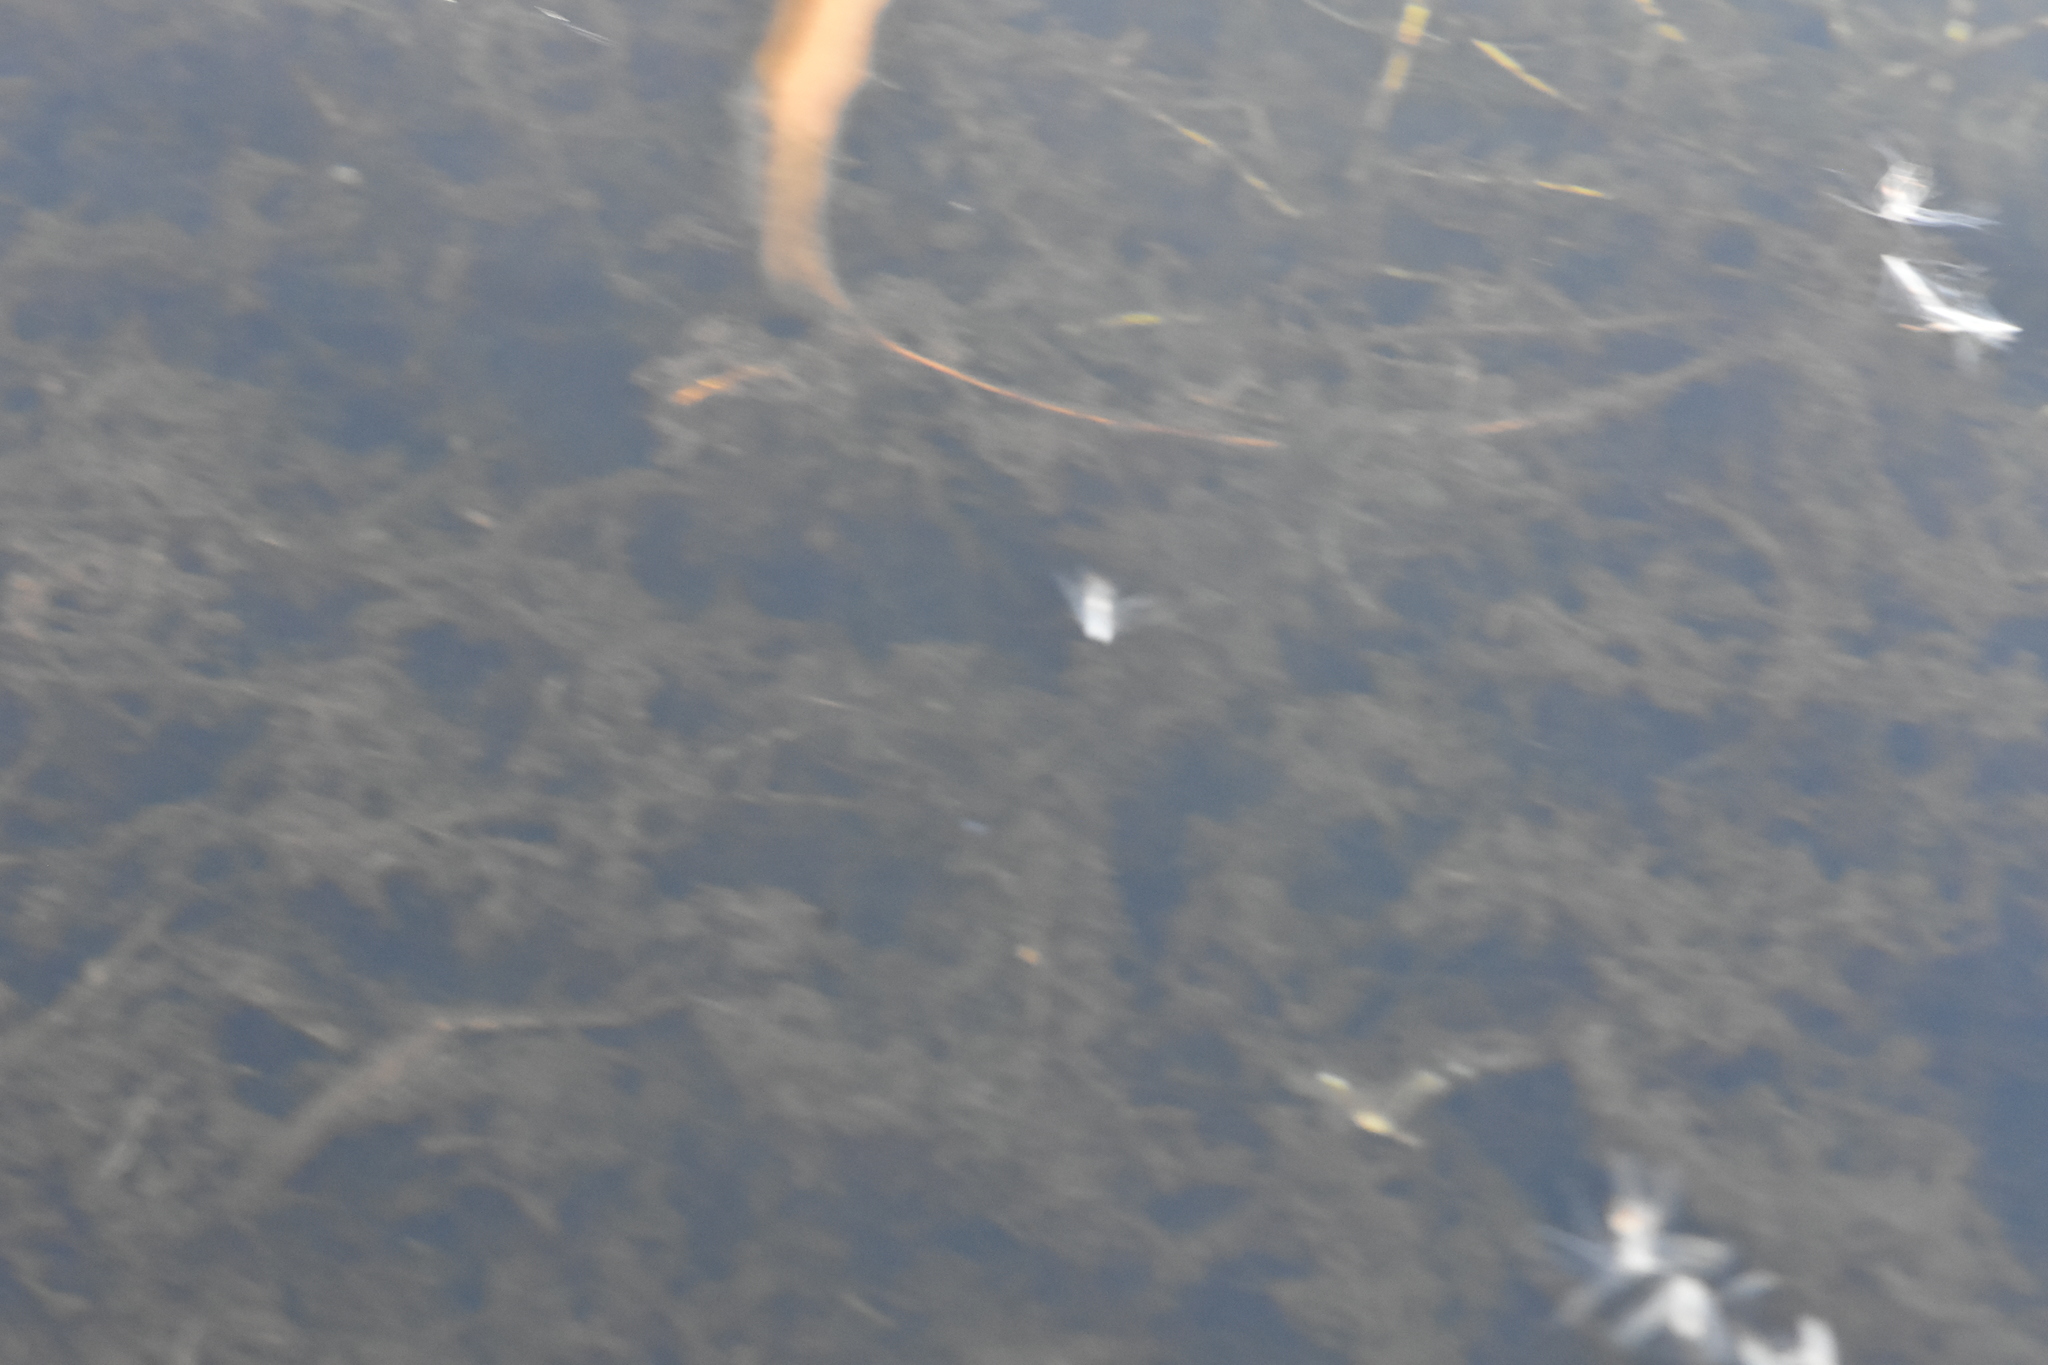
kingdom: Plantae
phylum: Tracheophyta
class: Liliopsida
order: Alismatales
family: Hydrocharitaceae
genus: Elodea
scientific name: Elodea canadensis
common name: Canadian waterweed
